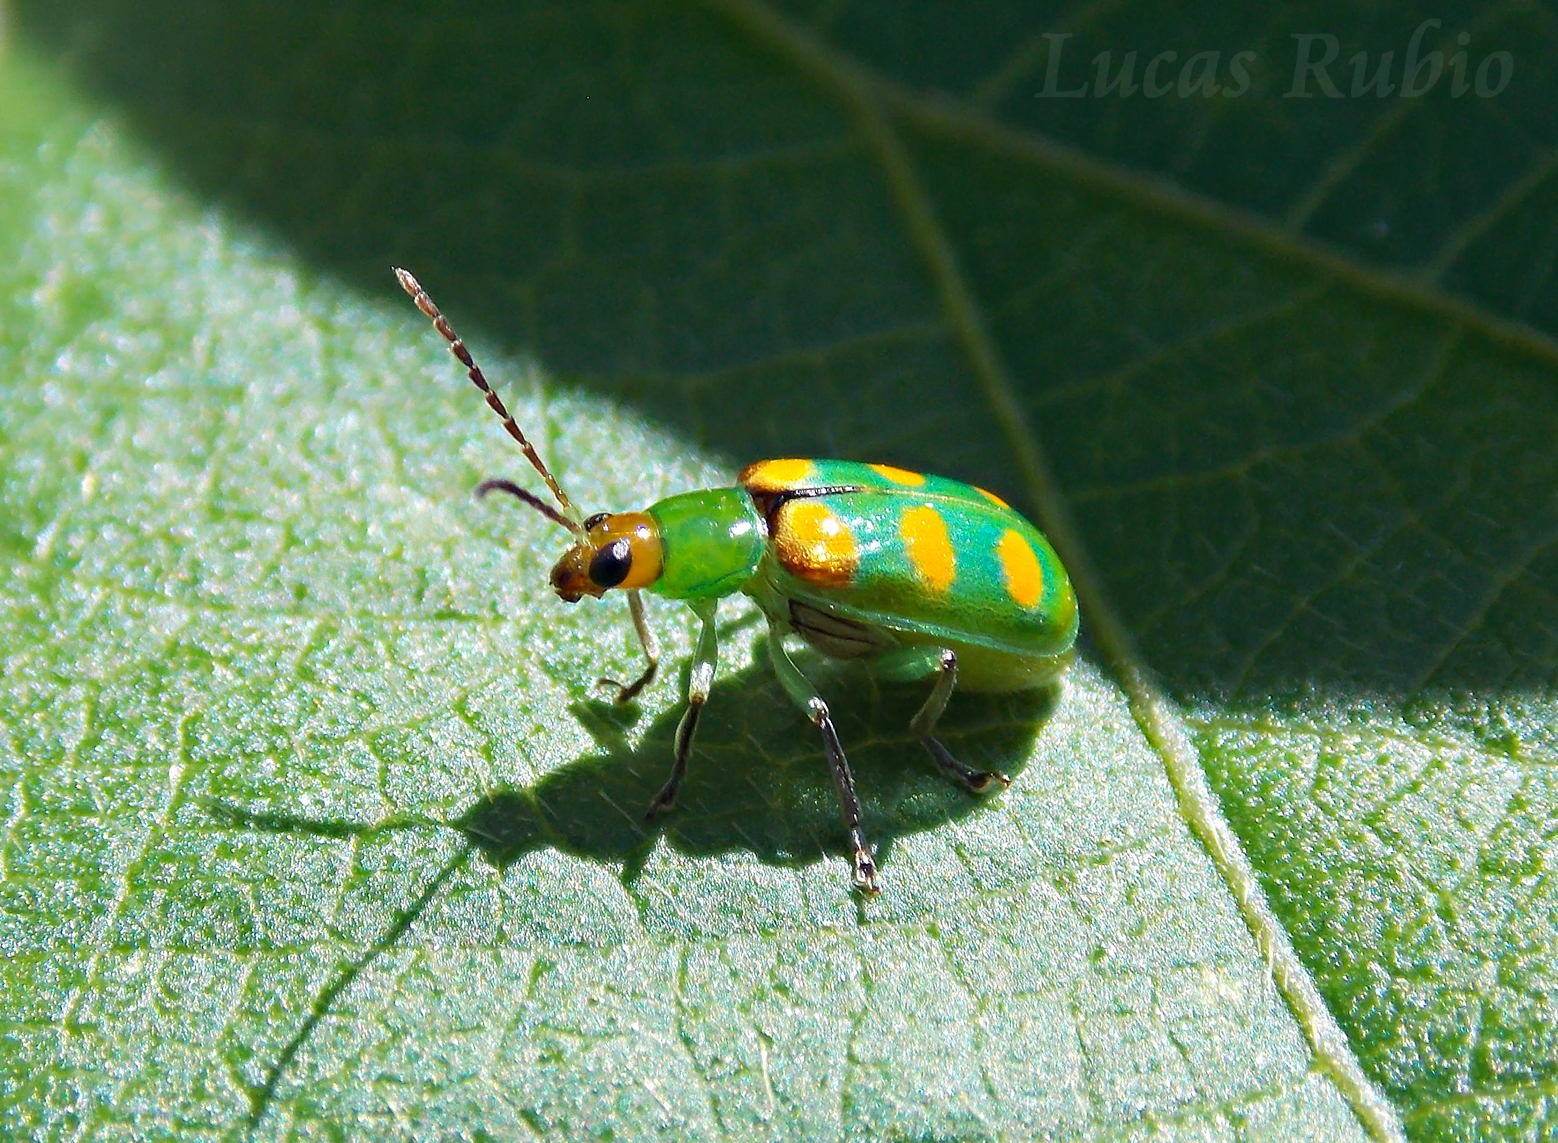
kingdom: Animalia
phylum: Arthropoda
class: Insecta
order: Coleoptera
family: Chrysomelidae
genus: Diabrotica
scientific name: Diabrotica speciosa
